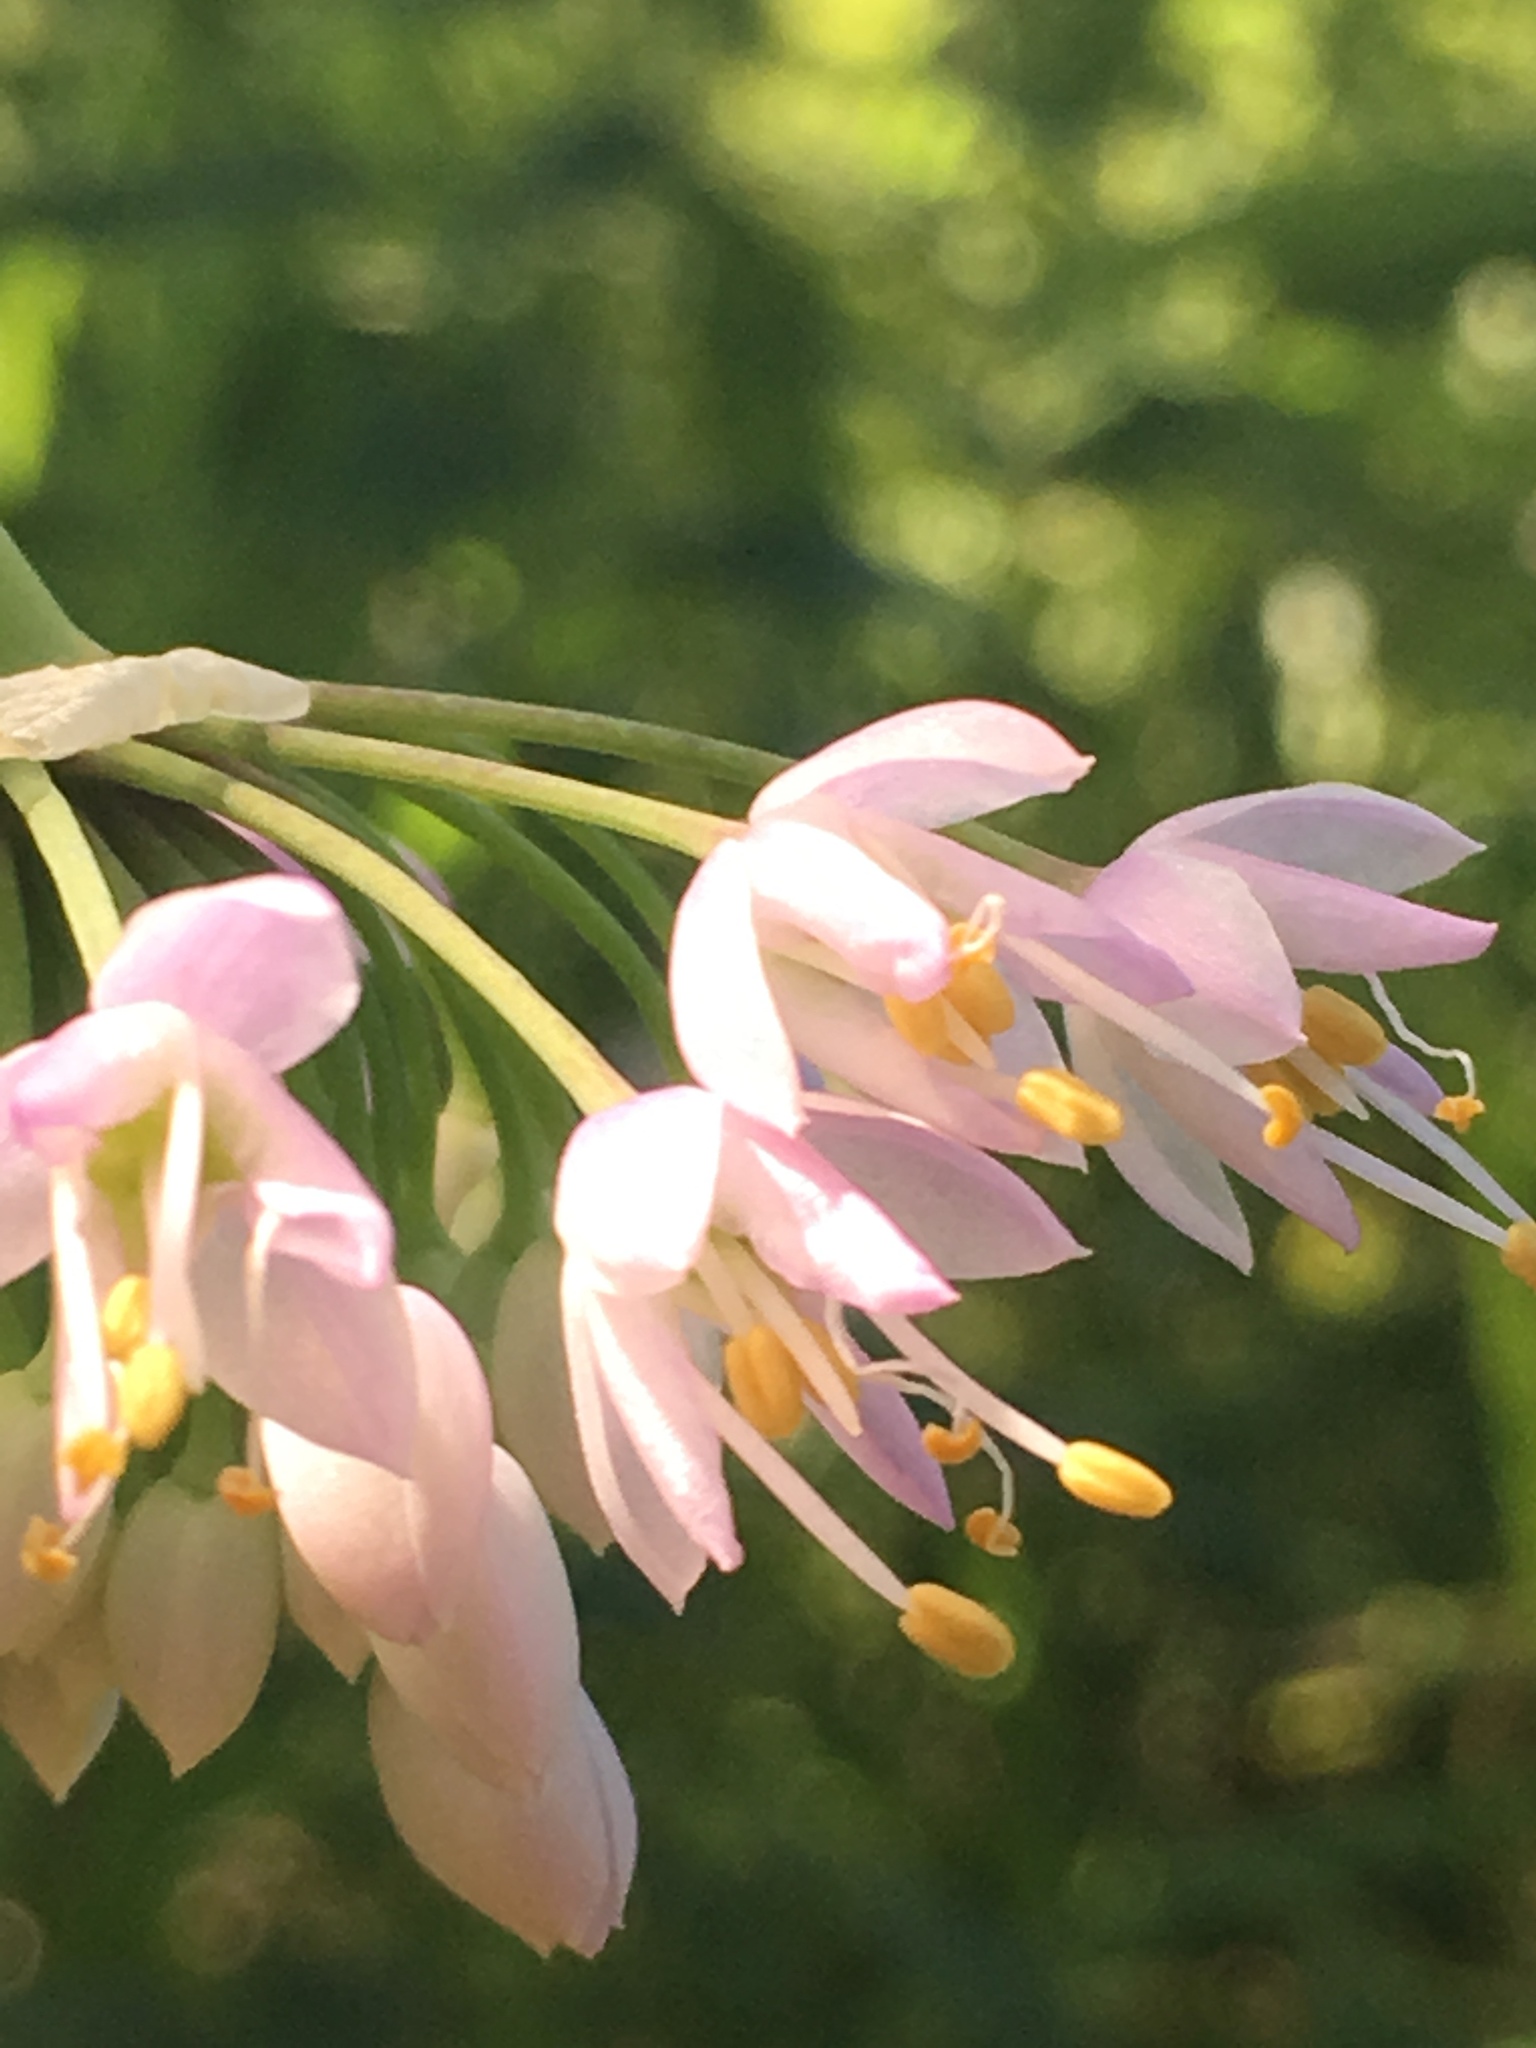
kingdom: Plantae
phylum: Tracheophyta
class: Liliopsida
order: Asparagales
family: Amaryllidaceae
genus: Allium
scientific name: Allium cernuum
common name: Nodding onion
